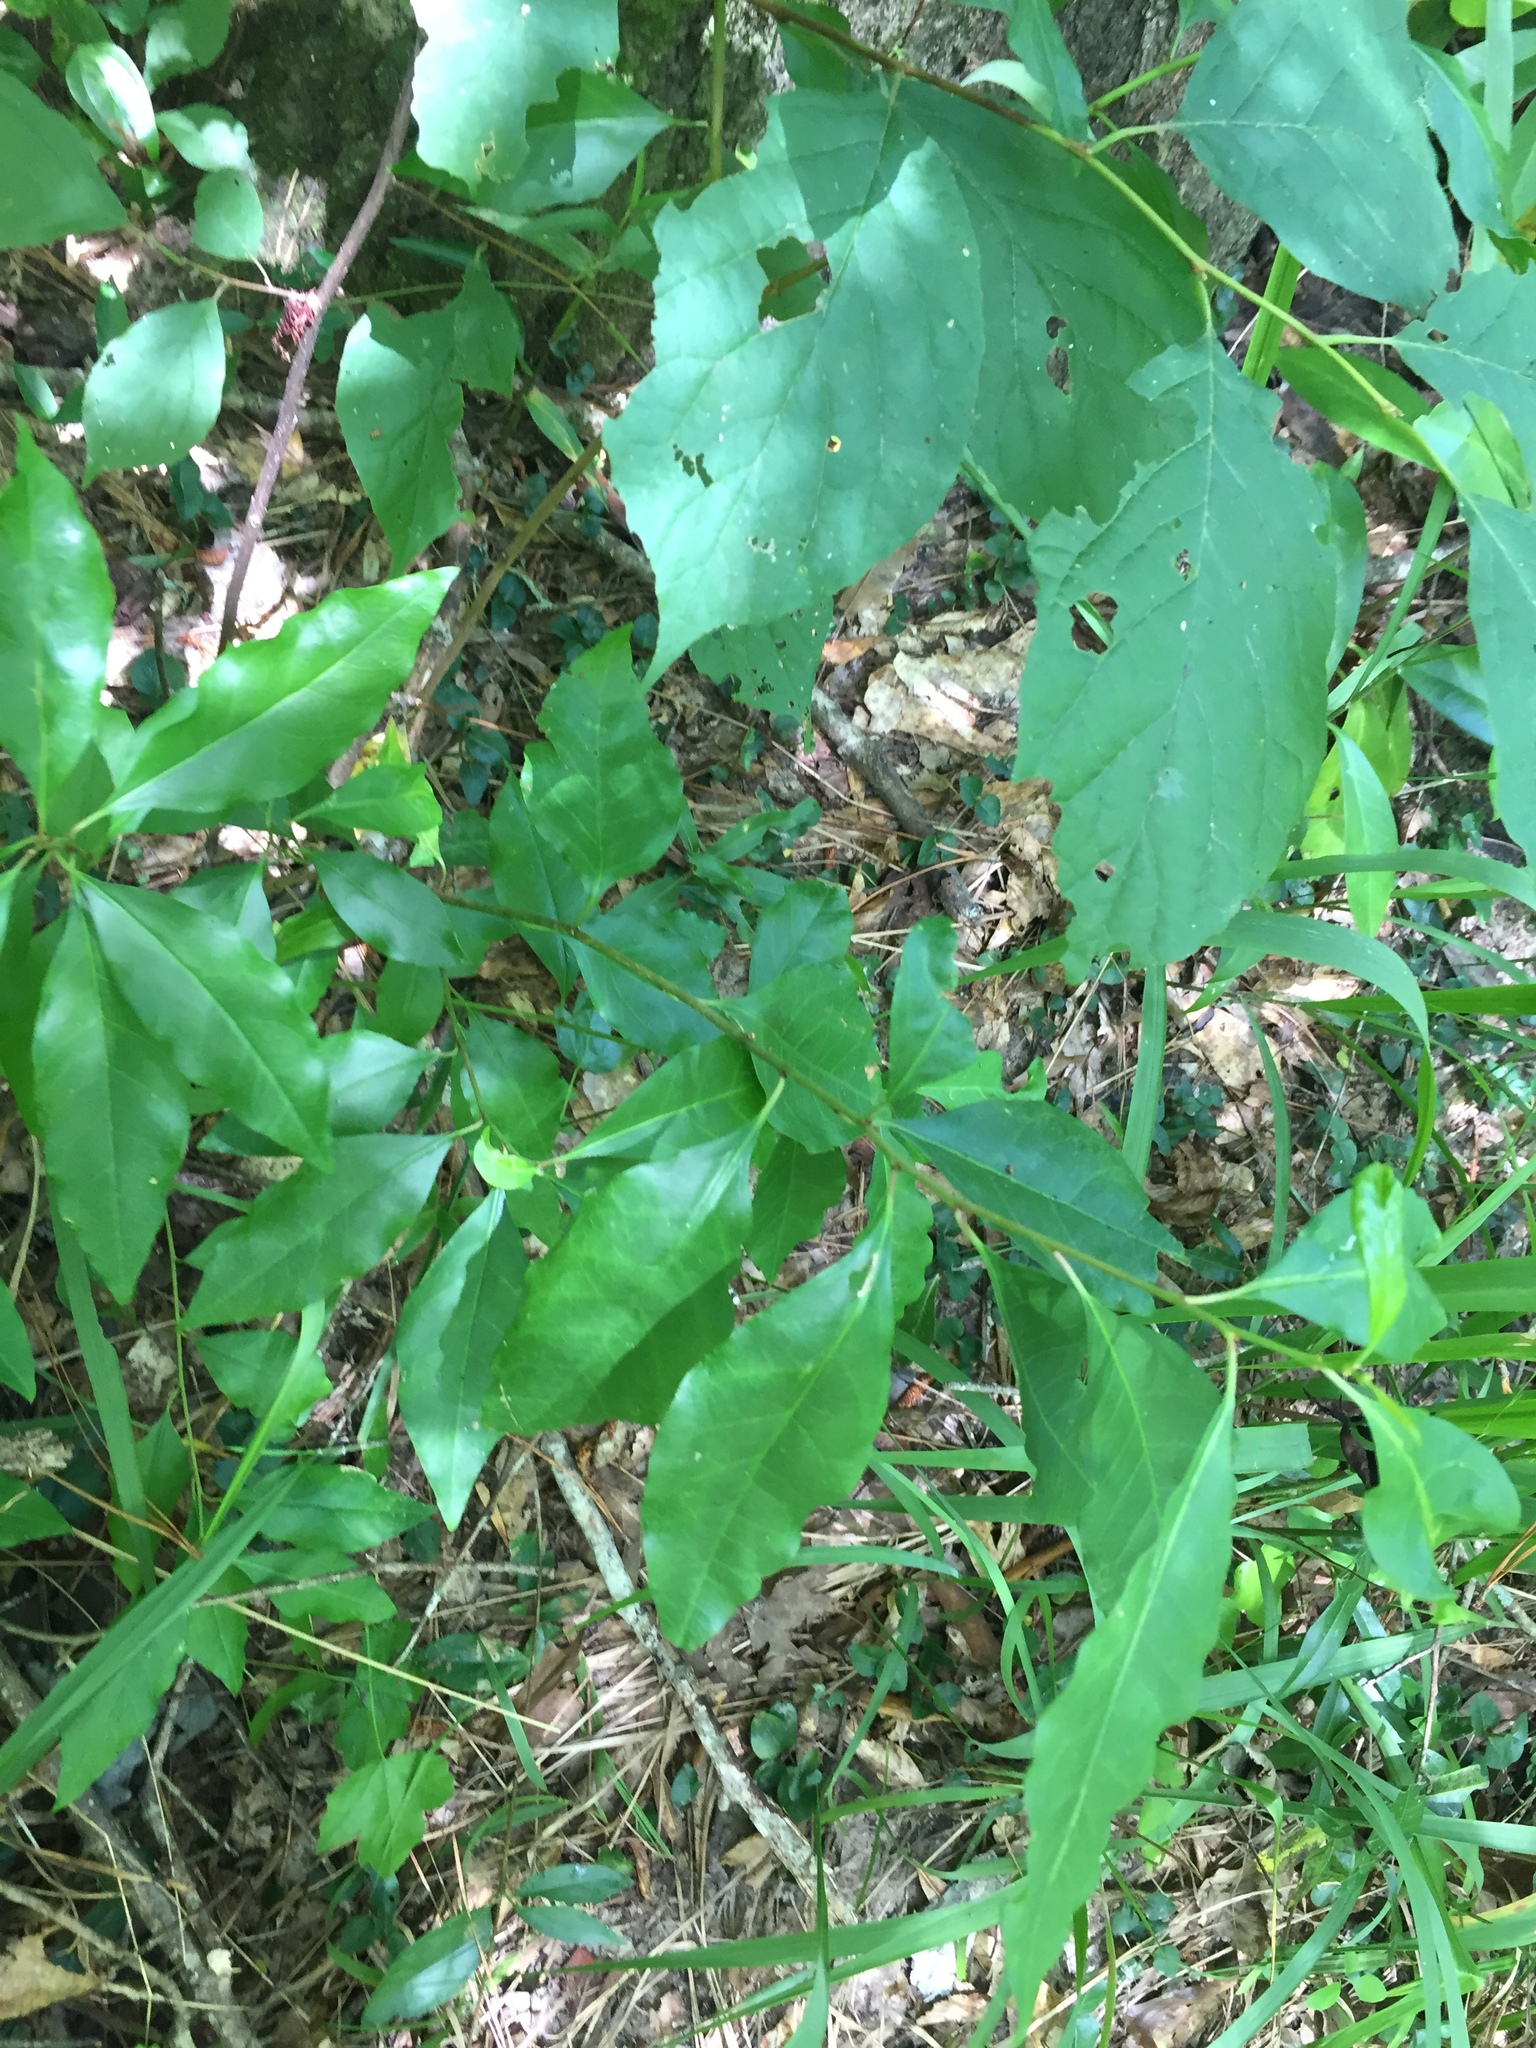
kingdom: Plantae
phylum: Tracheophyta
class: Magnoliopsida
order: Malpighiales
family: Euphorbiaceae
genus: Ditrysinia
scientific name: Ditrysinia fruticosa
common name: Gulf sebastian-bush
